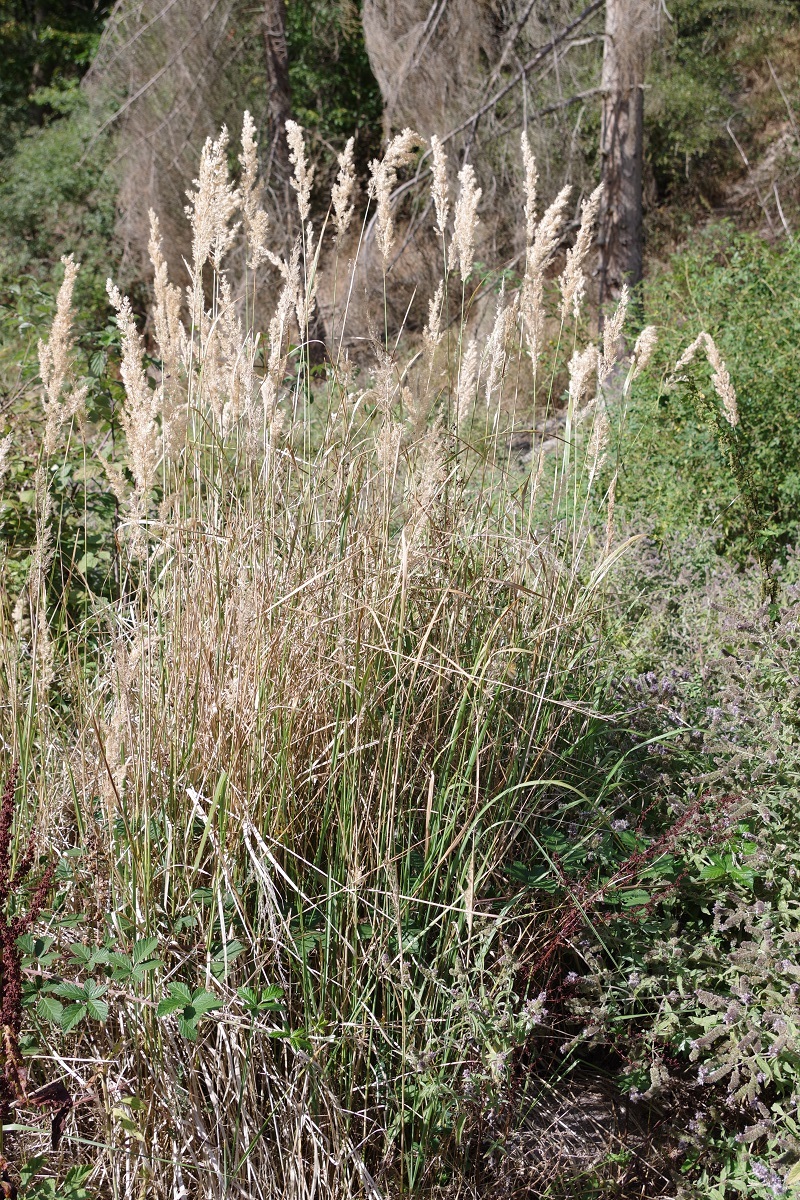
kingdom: Plantae
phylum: Tracheophyta
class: Liliopsida
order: Poales
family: Poaceae
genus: Calamagrostis
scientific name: Calamagrostis epigejos
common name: Wood small-reed
